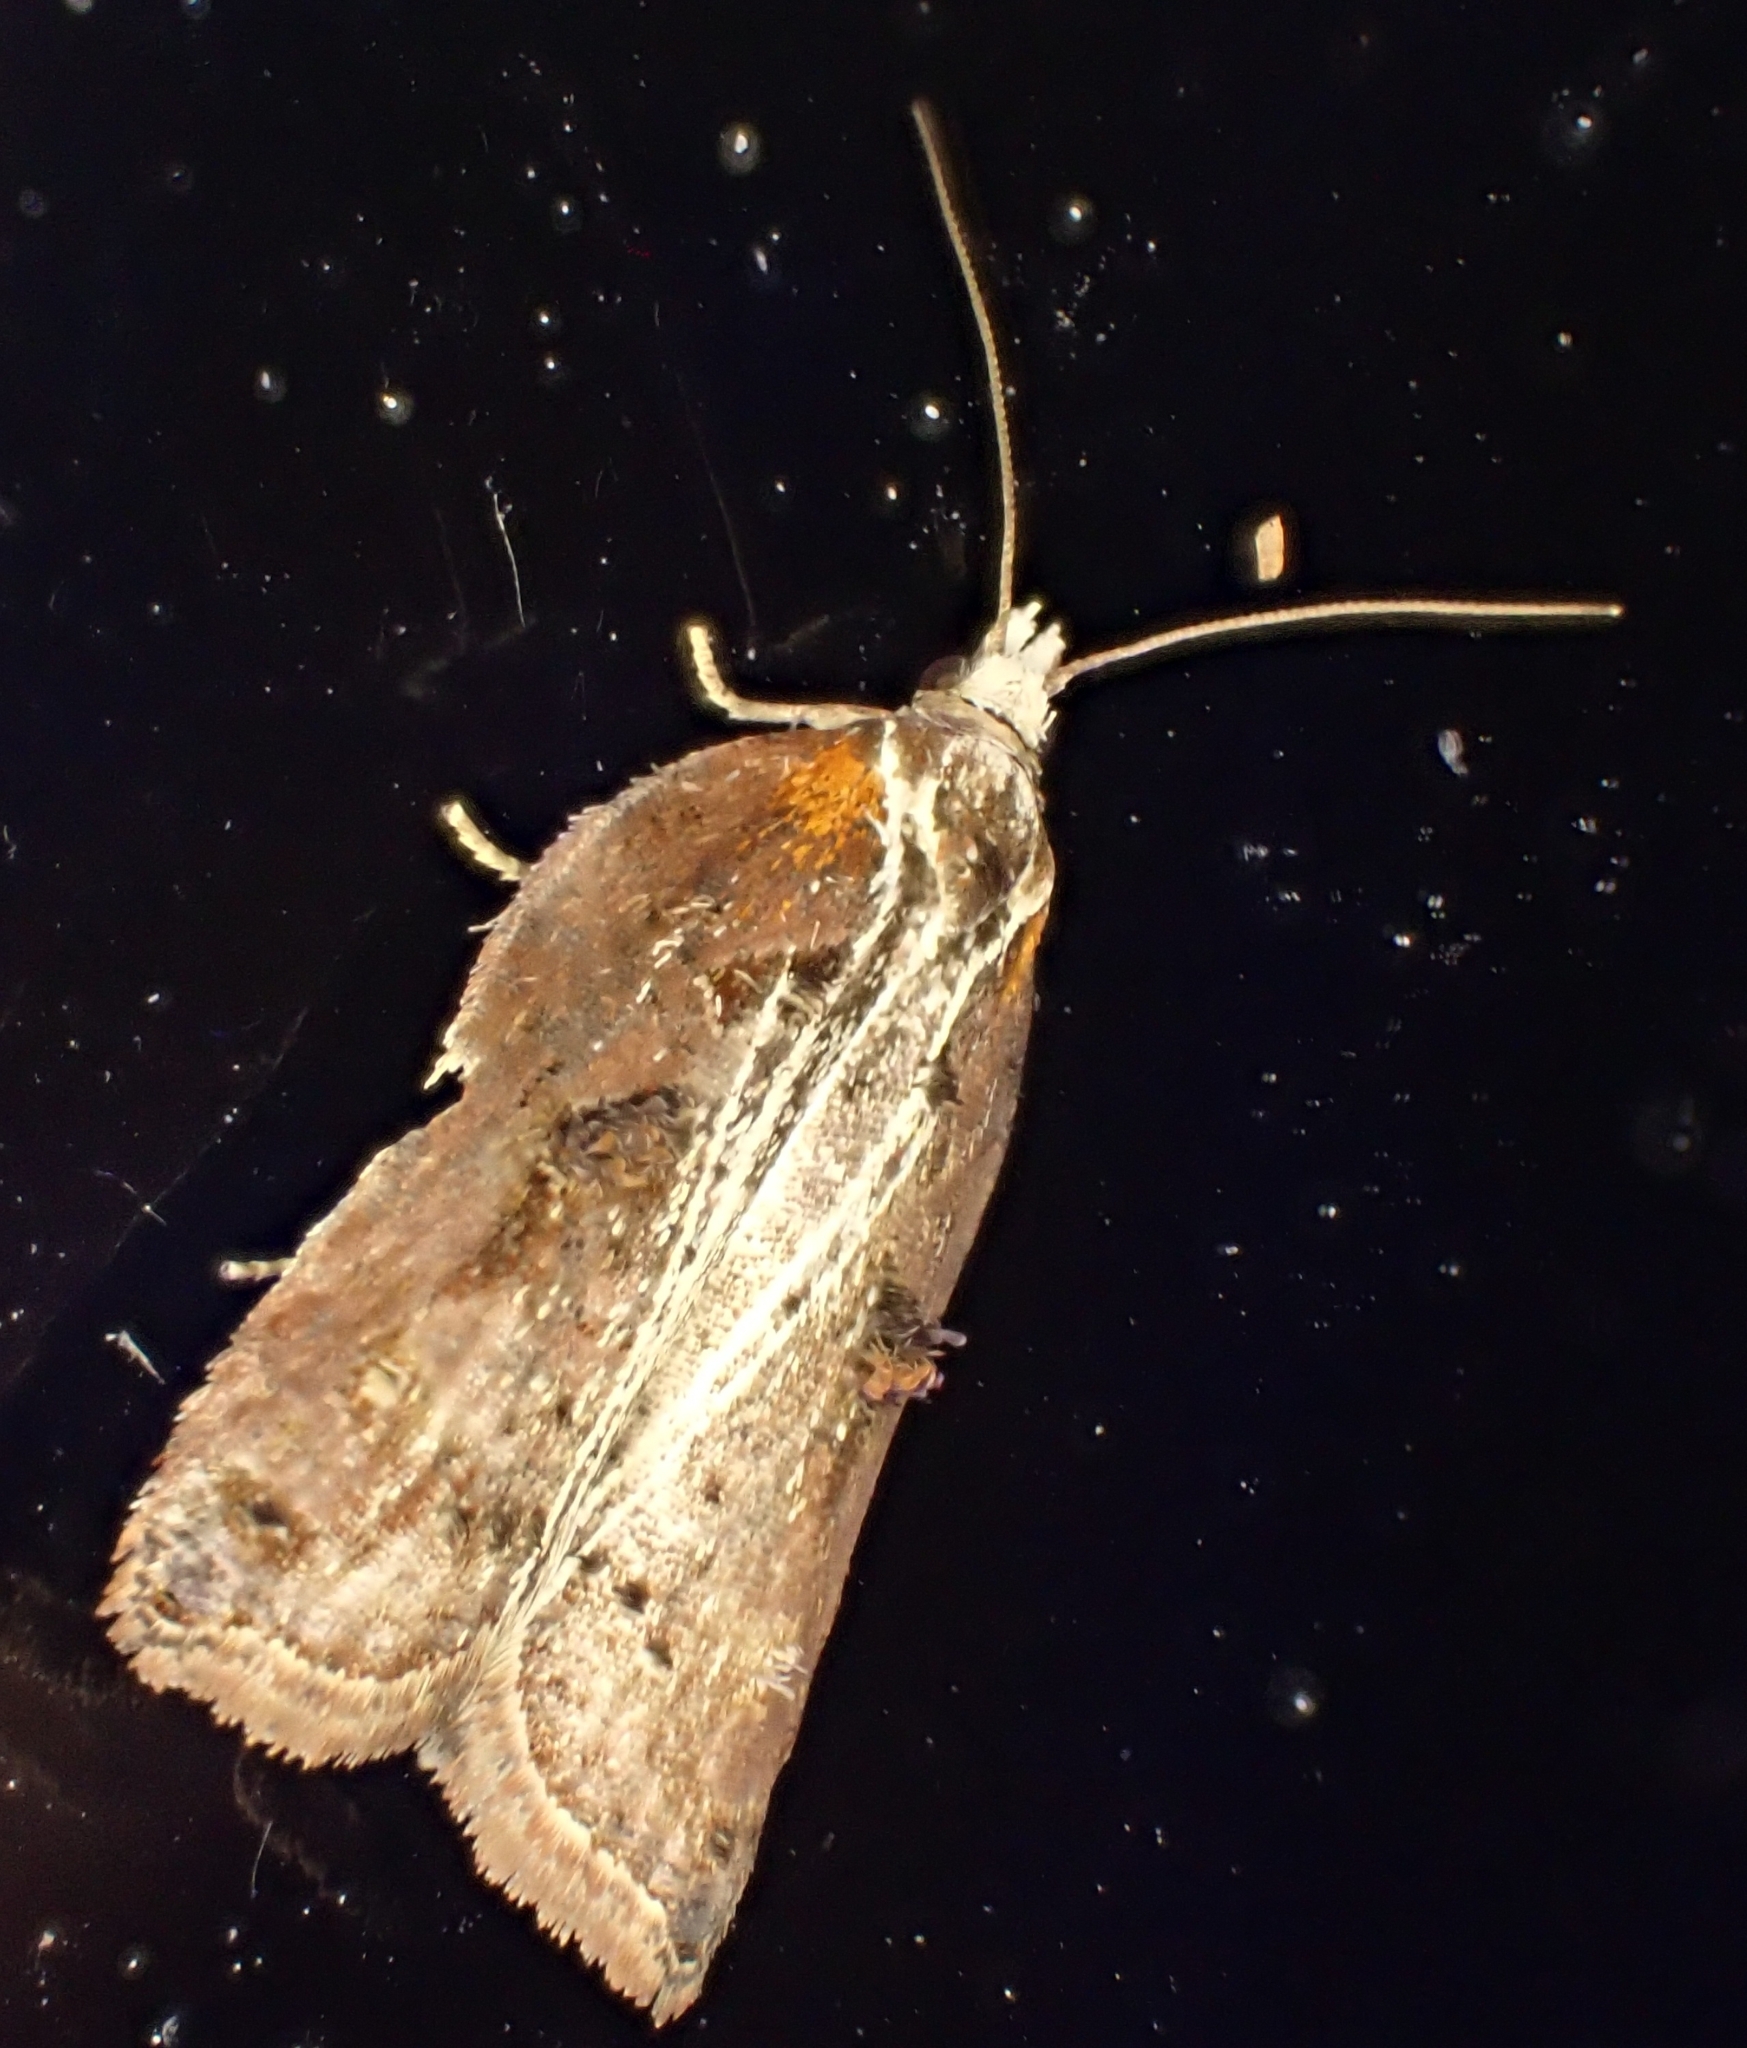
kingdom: Animalia
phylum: Arthropoda
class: Insecta
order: Lepidoptera
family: Tortricidae
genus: Acleris
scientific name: Acleris cristana
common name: Tufted button
